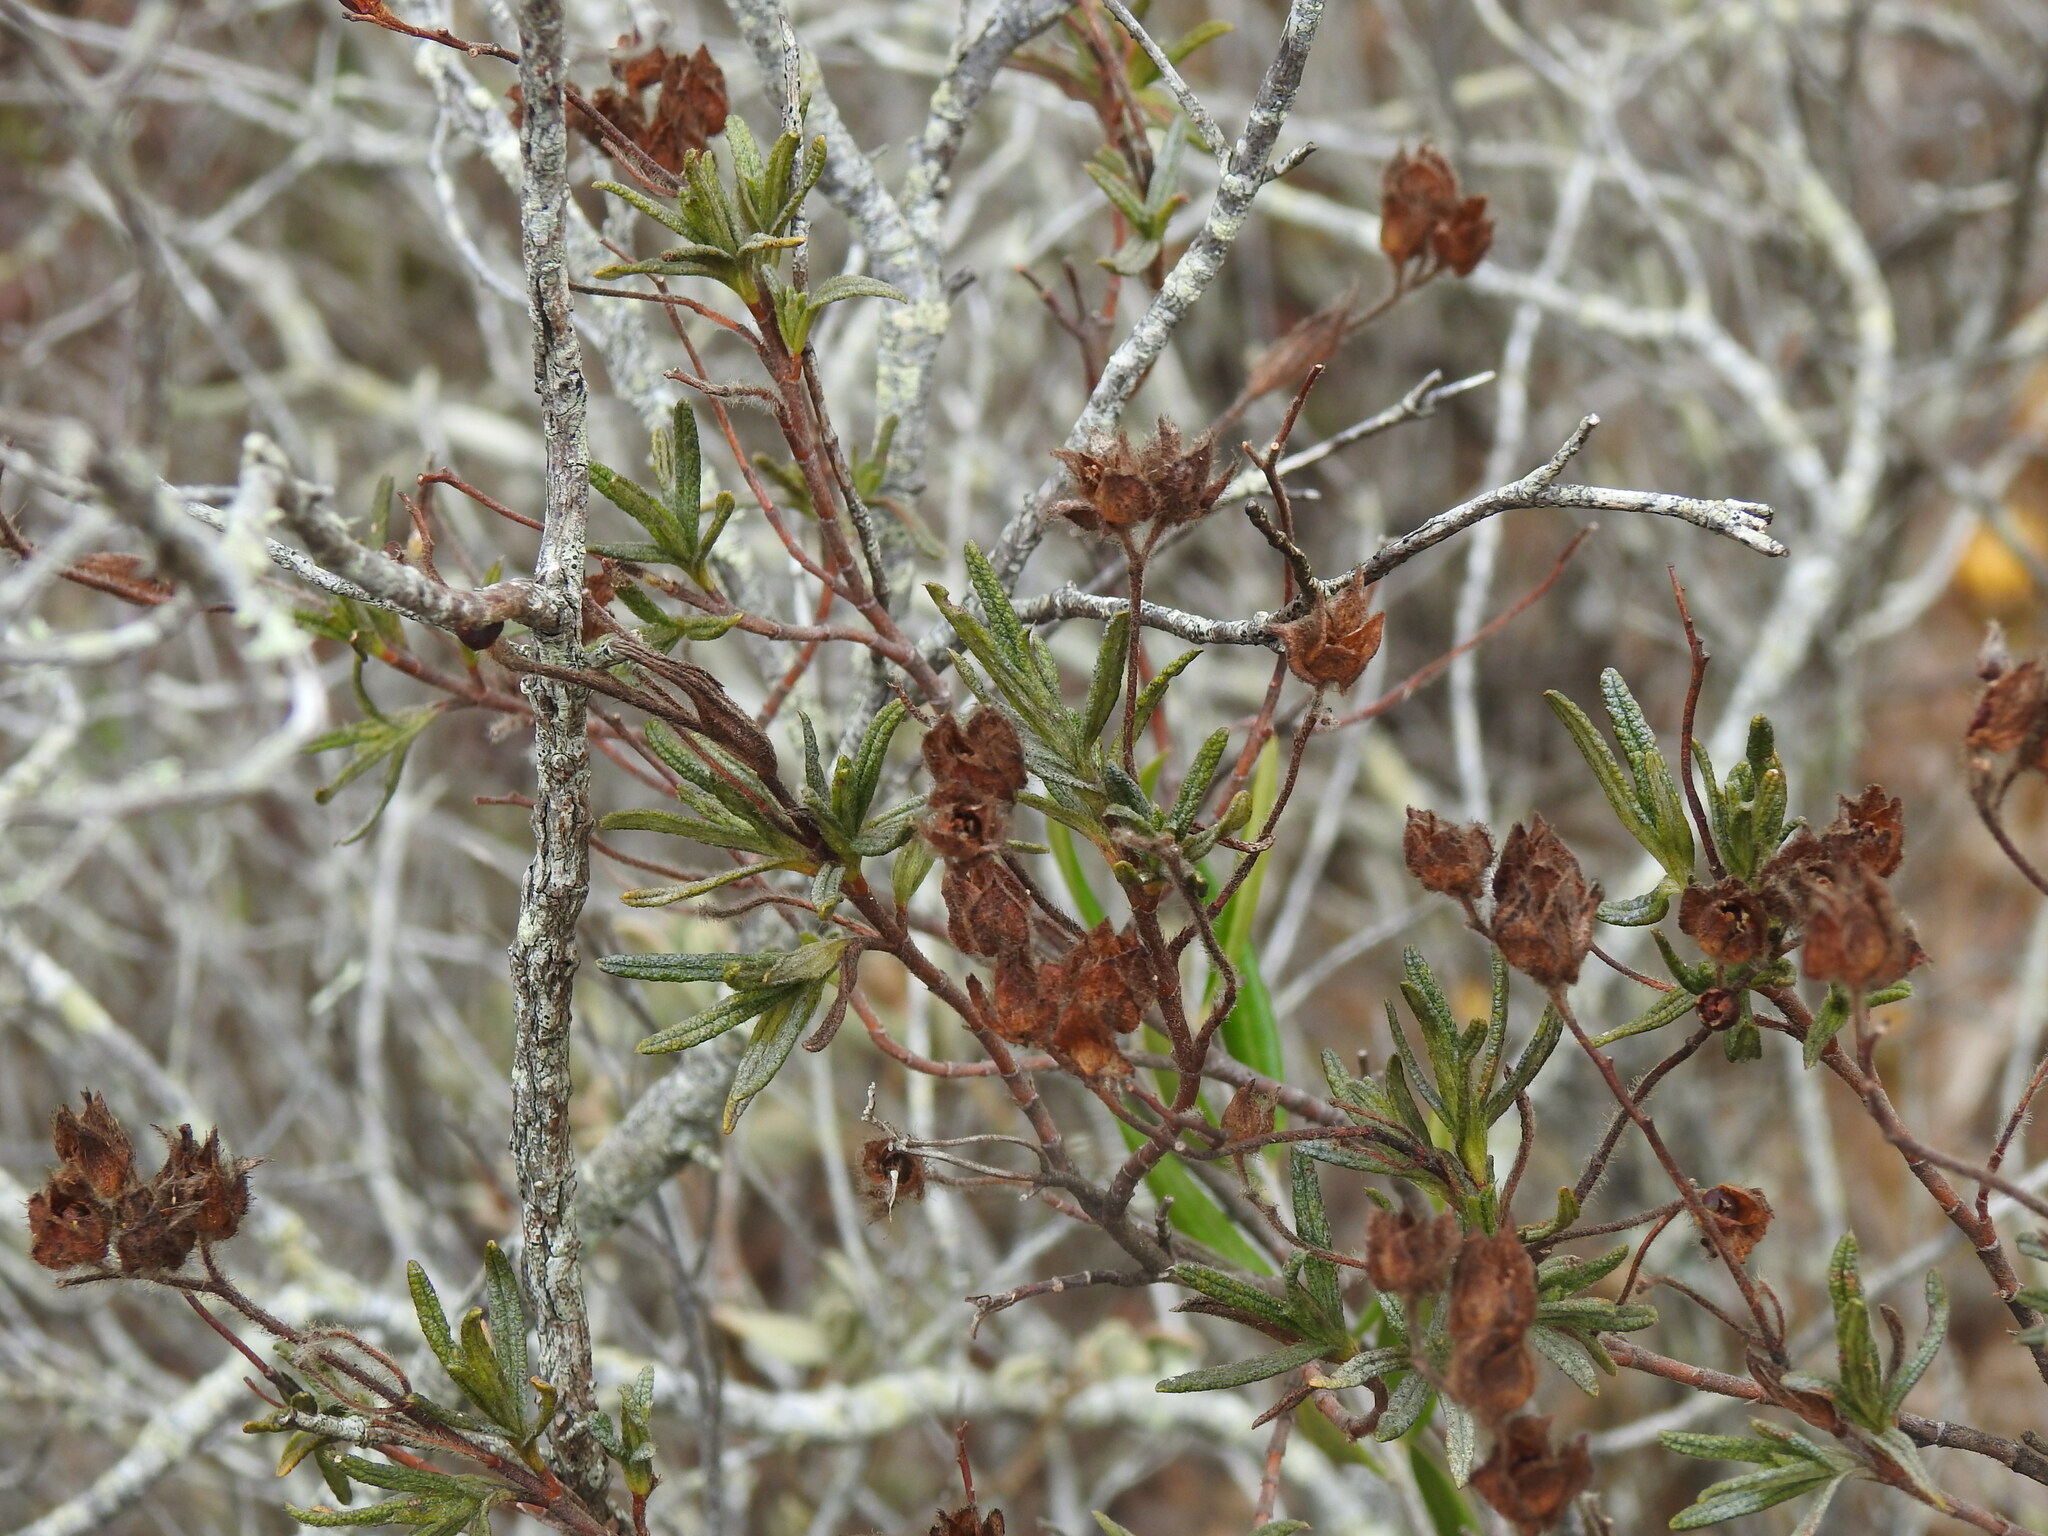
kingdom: Plantae
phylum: Tracheophyta
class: Magnoliopsida
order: Malvales
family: Cistaceae
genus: Cistus
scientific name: Cistus monspeliensis
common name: Montpelier cistus
